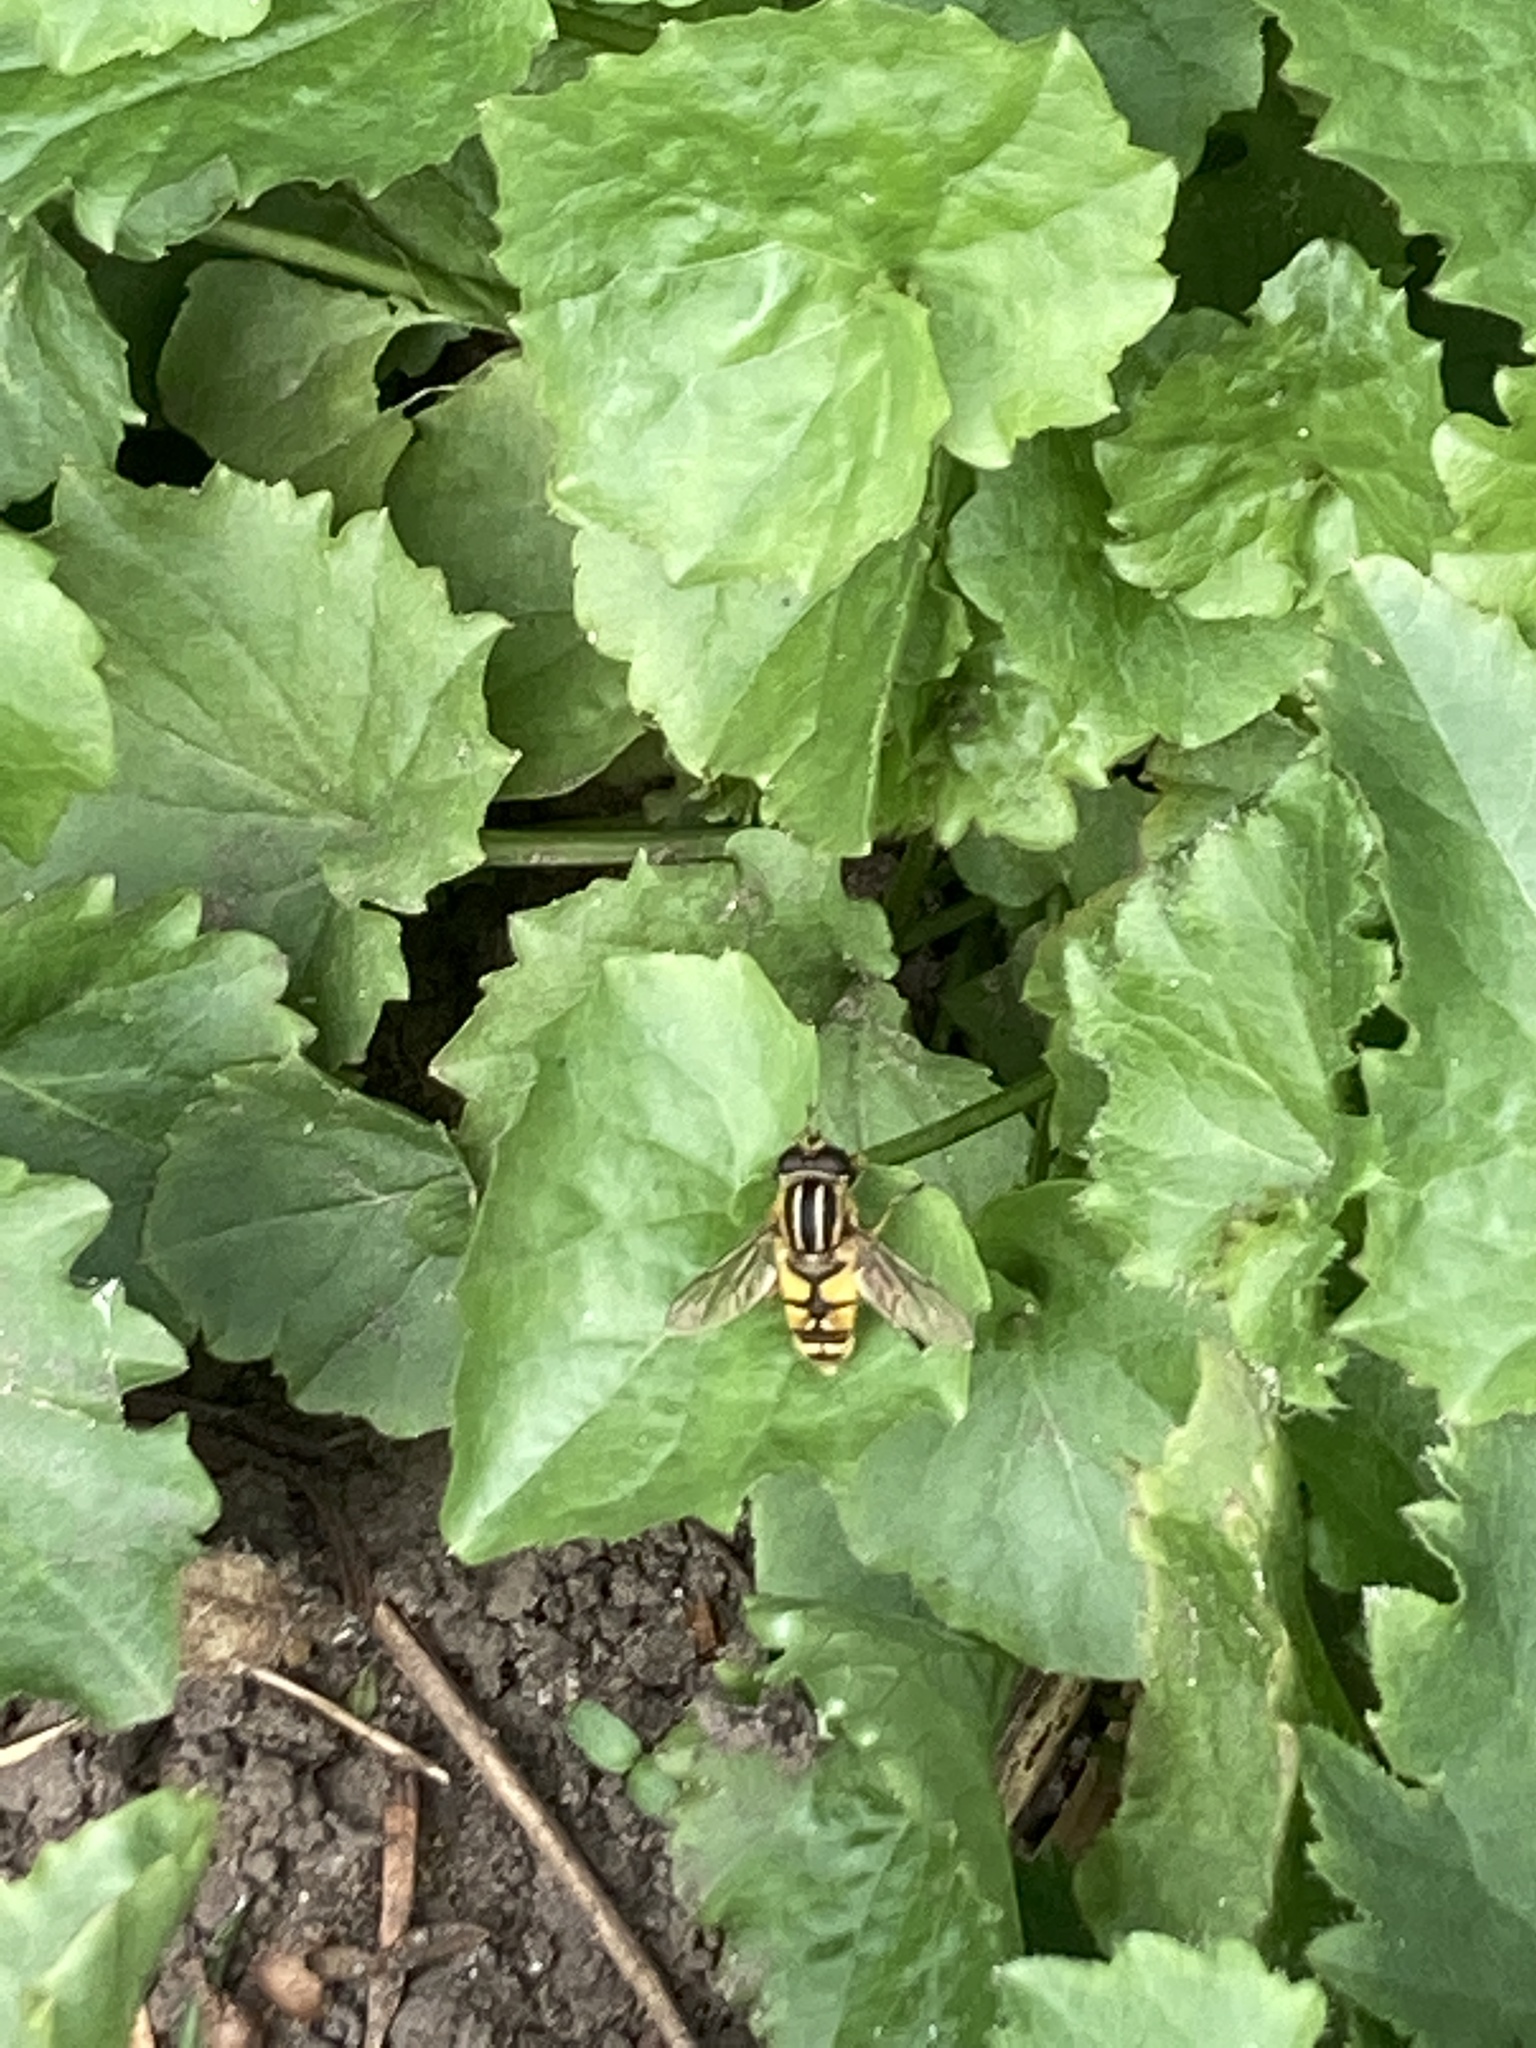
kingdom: Animalia
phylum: Arthropoda
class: Insecta
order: Diptera
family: Syrphidae
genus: Helophilus
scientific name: Helophilus pendulus
